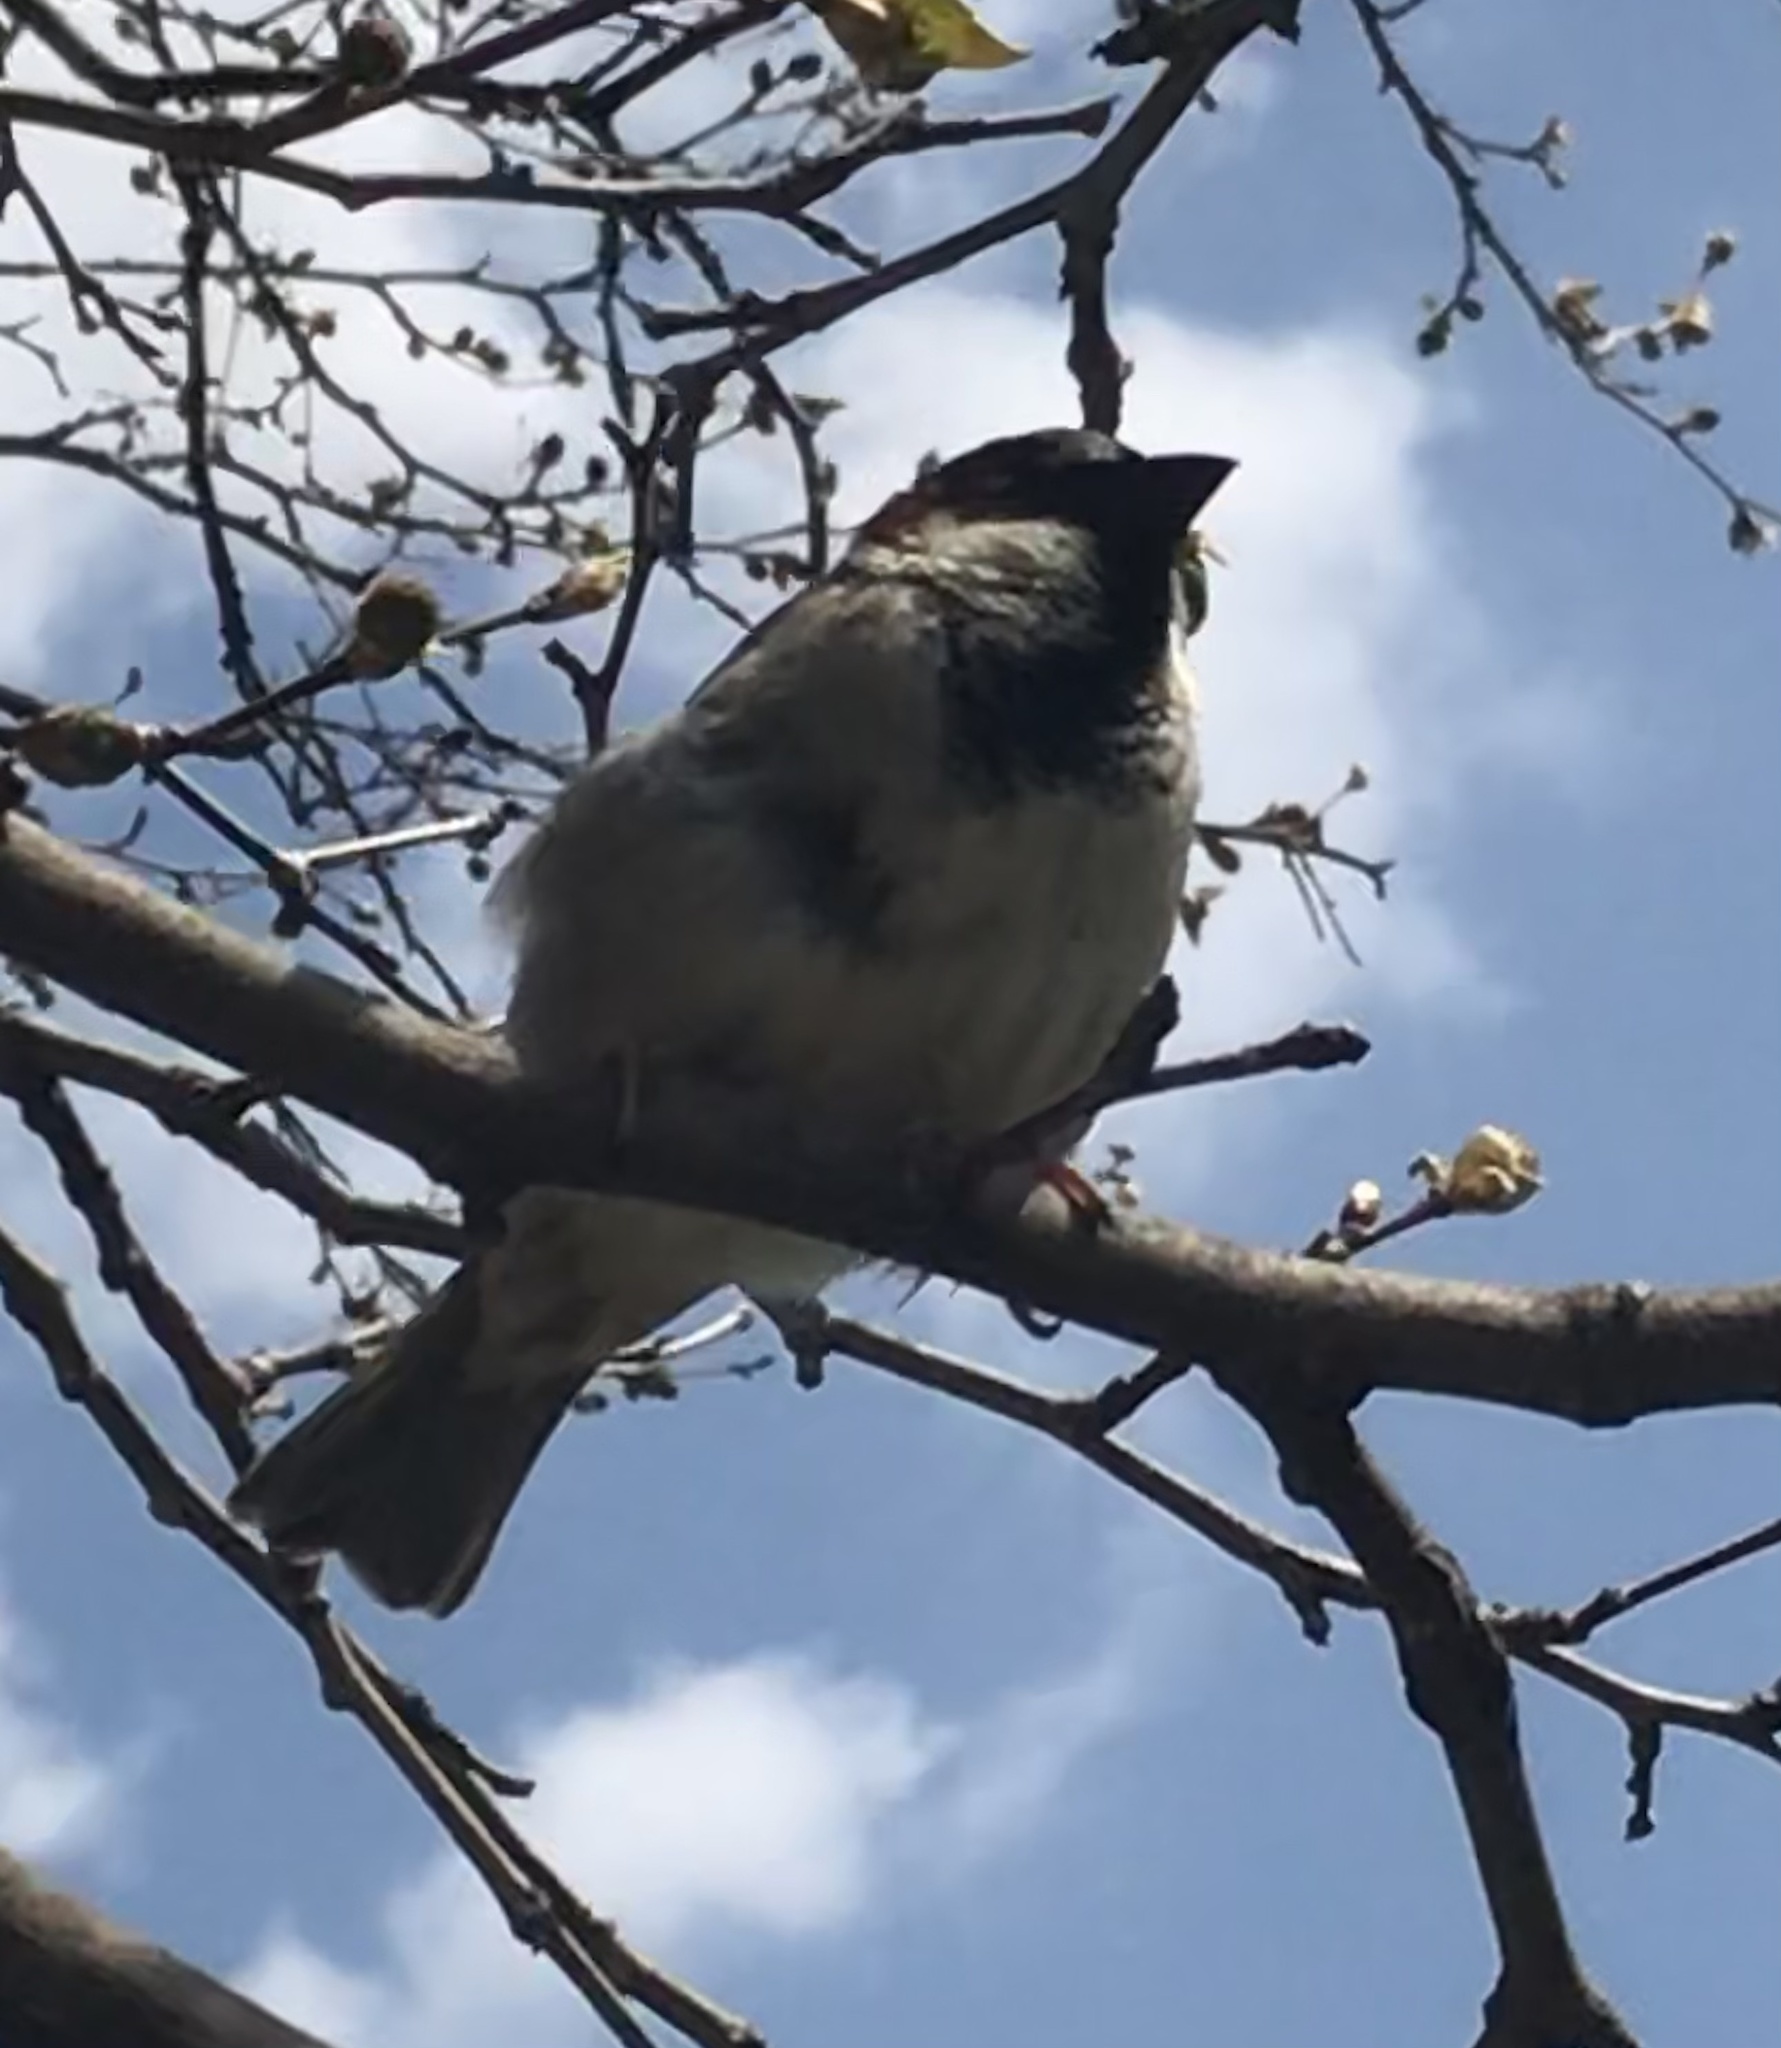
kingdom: Animalia
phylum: Chordata
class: Aves
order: Passeriformes
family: Passeridae
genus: Passer
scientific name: Passer domesticus
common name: House sparrow
